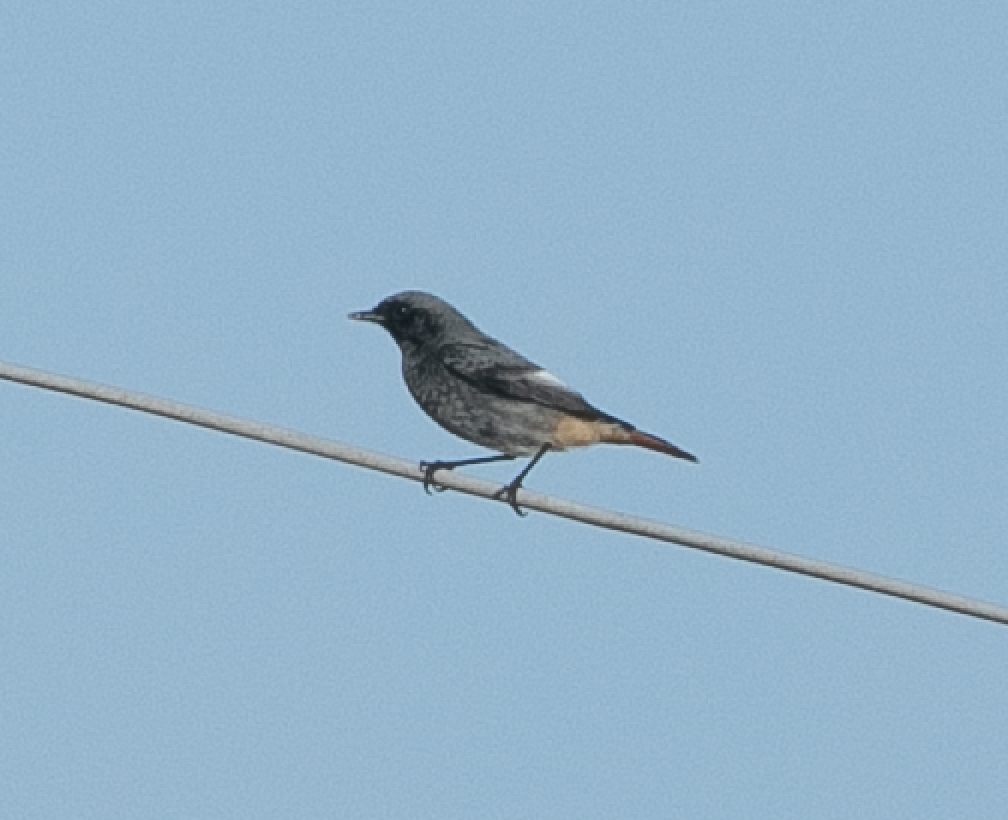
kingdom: Animalia
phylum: Chordata
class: Aves
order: Passeriformes
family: Muscicapidae
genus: Phoenicurus
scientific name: Phoenicurus ochruros
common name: Black redstart
